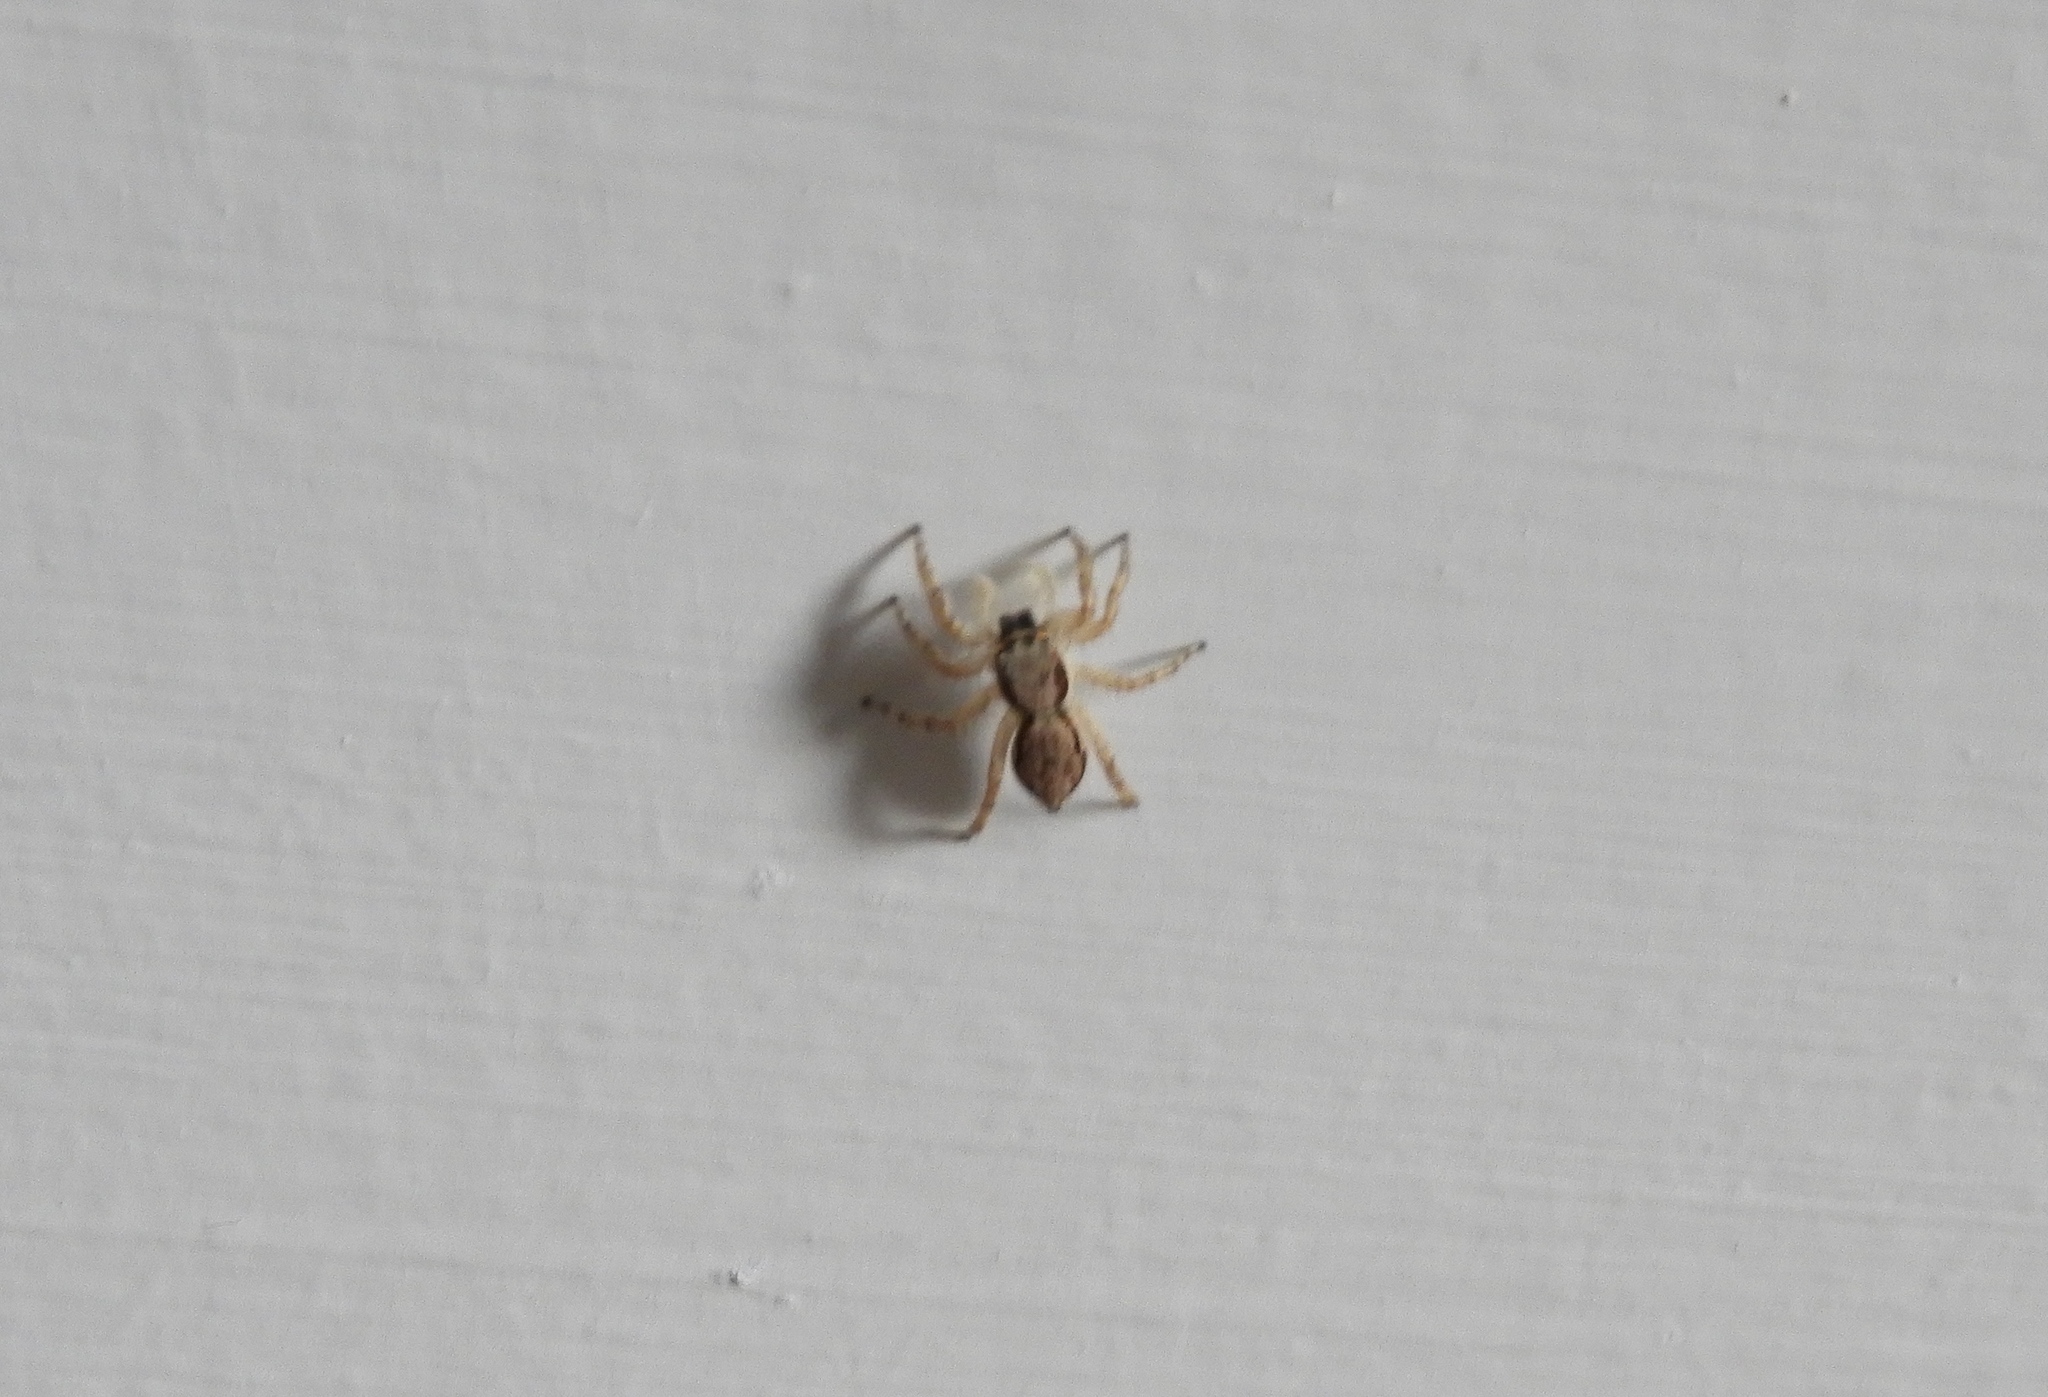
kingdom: Animalia
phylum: Arthropoda
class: Arachnida
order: Araneae
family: Salticidae
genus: Menemerus
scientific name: Menemerus bivittatus
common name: Gray wall jumper
